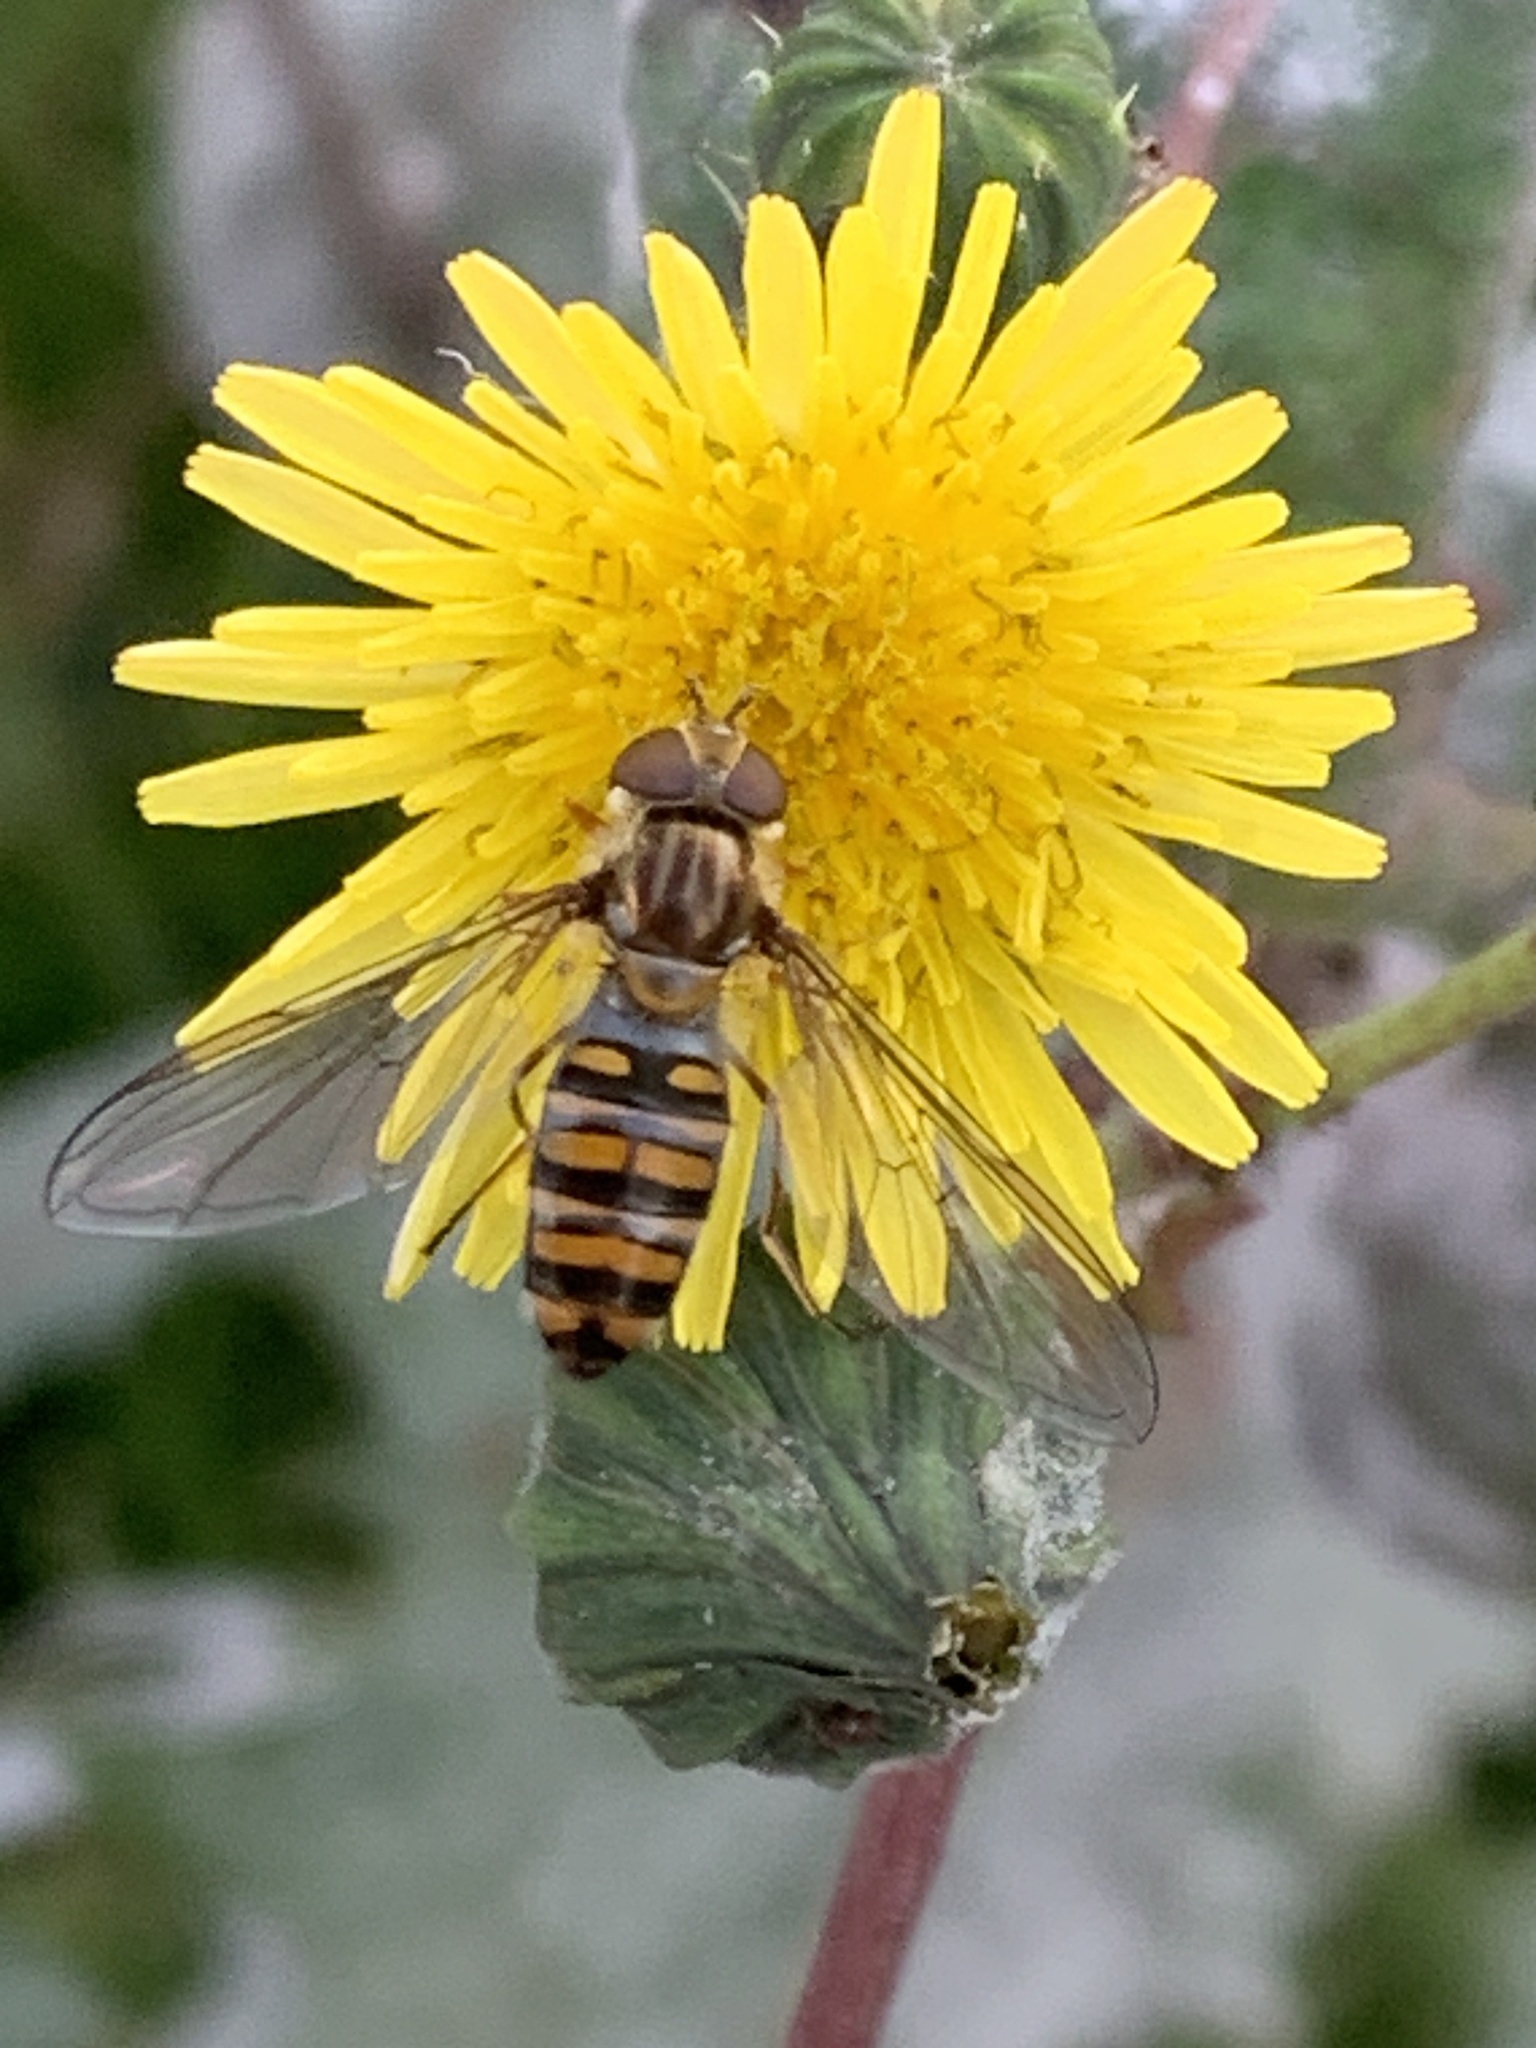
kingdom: Animalia
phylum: Arthropoda
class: Insecta
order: Diptera
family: Syrphidae
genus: Episyrphus
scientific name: Episyrphus balteatus
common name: Marmalade hoverfly
